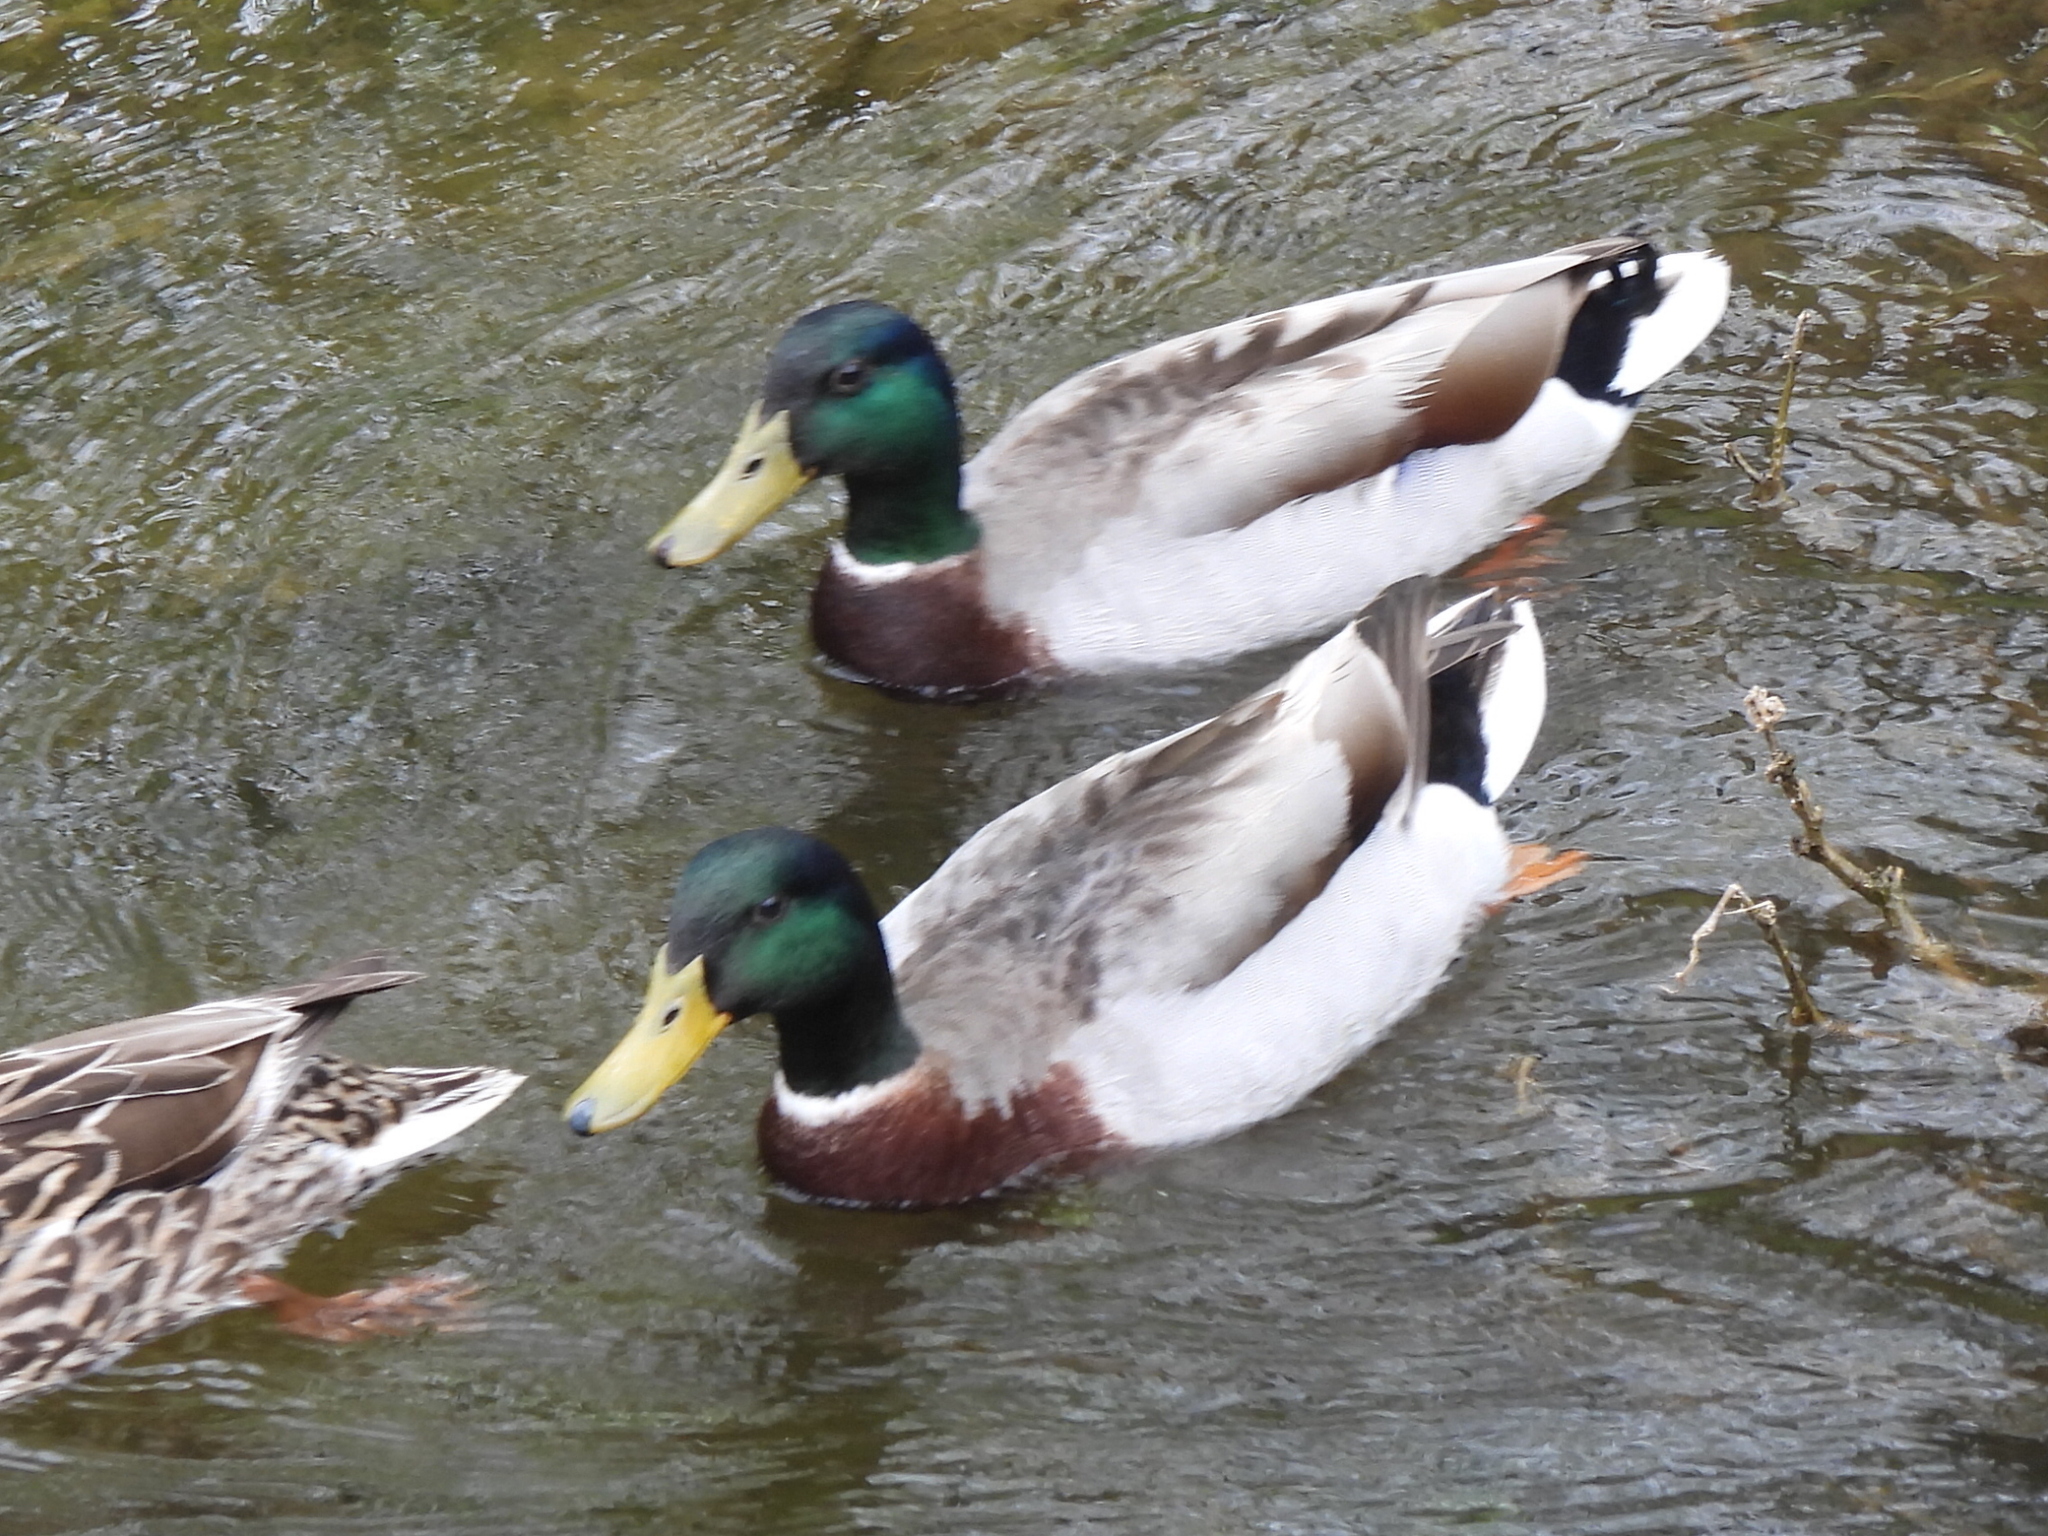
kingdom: Animalia
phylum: Chordata
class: Aves
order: Anseriformes
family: Anatidae
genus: Anas
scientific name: Anas platyrhynchos
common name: Mallard
